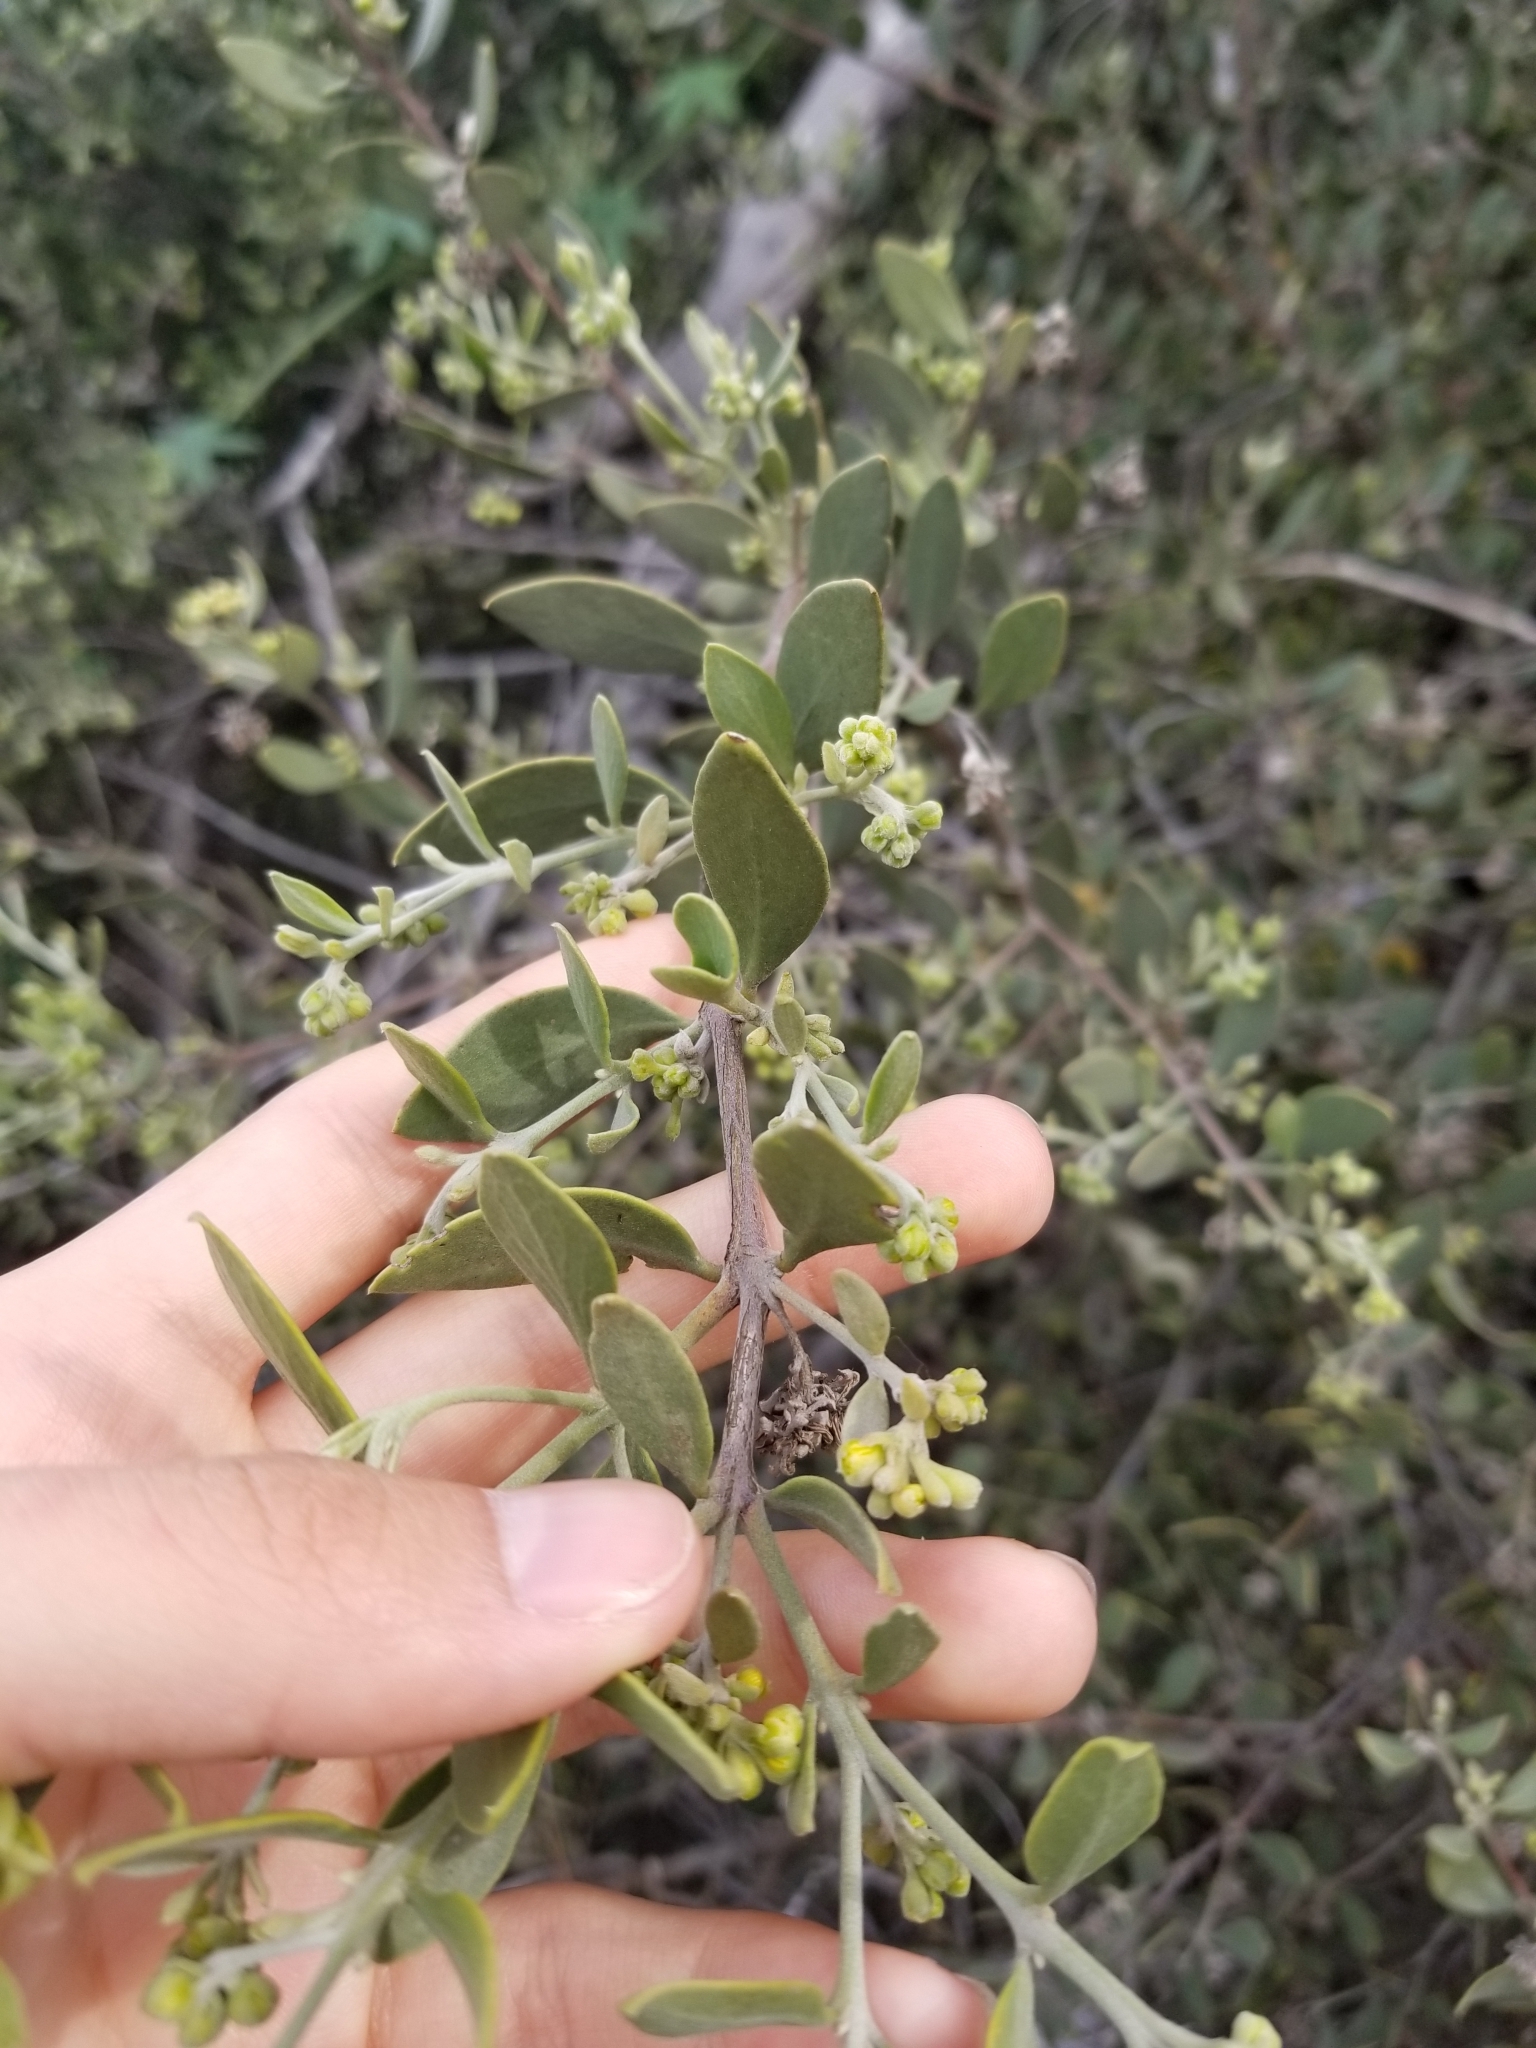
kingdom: Plantae
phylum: Tracheophyta
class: Magnoliopsida
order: Caryophyllales
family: Simmondsiaceae
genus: Simmondsia
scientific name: Simmondsia chinensis
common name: Jojoba
